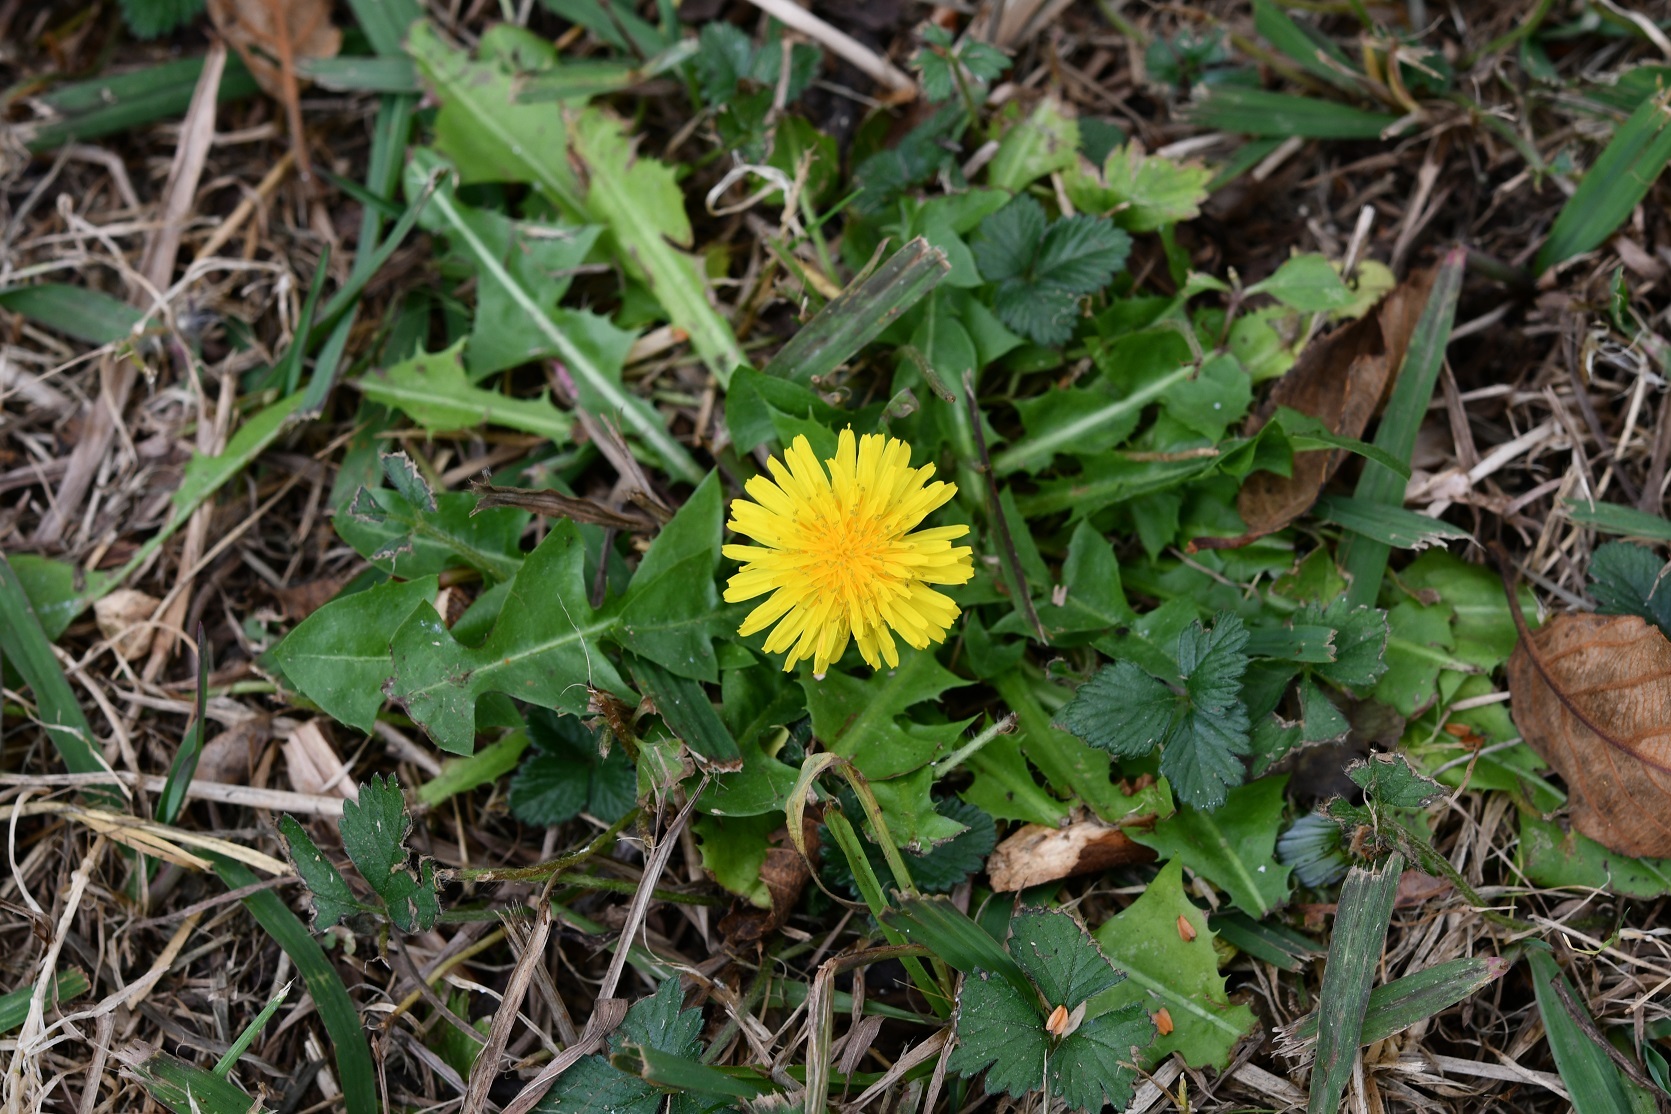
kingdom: Plantae
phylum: Tracheophyta
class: Magnoliopsida
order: Asterales
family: Asteraceae
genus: Taraxacum
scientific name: Taraxacum officinale
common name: Common dandelion
